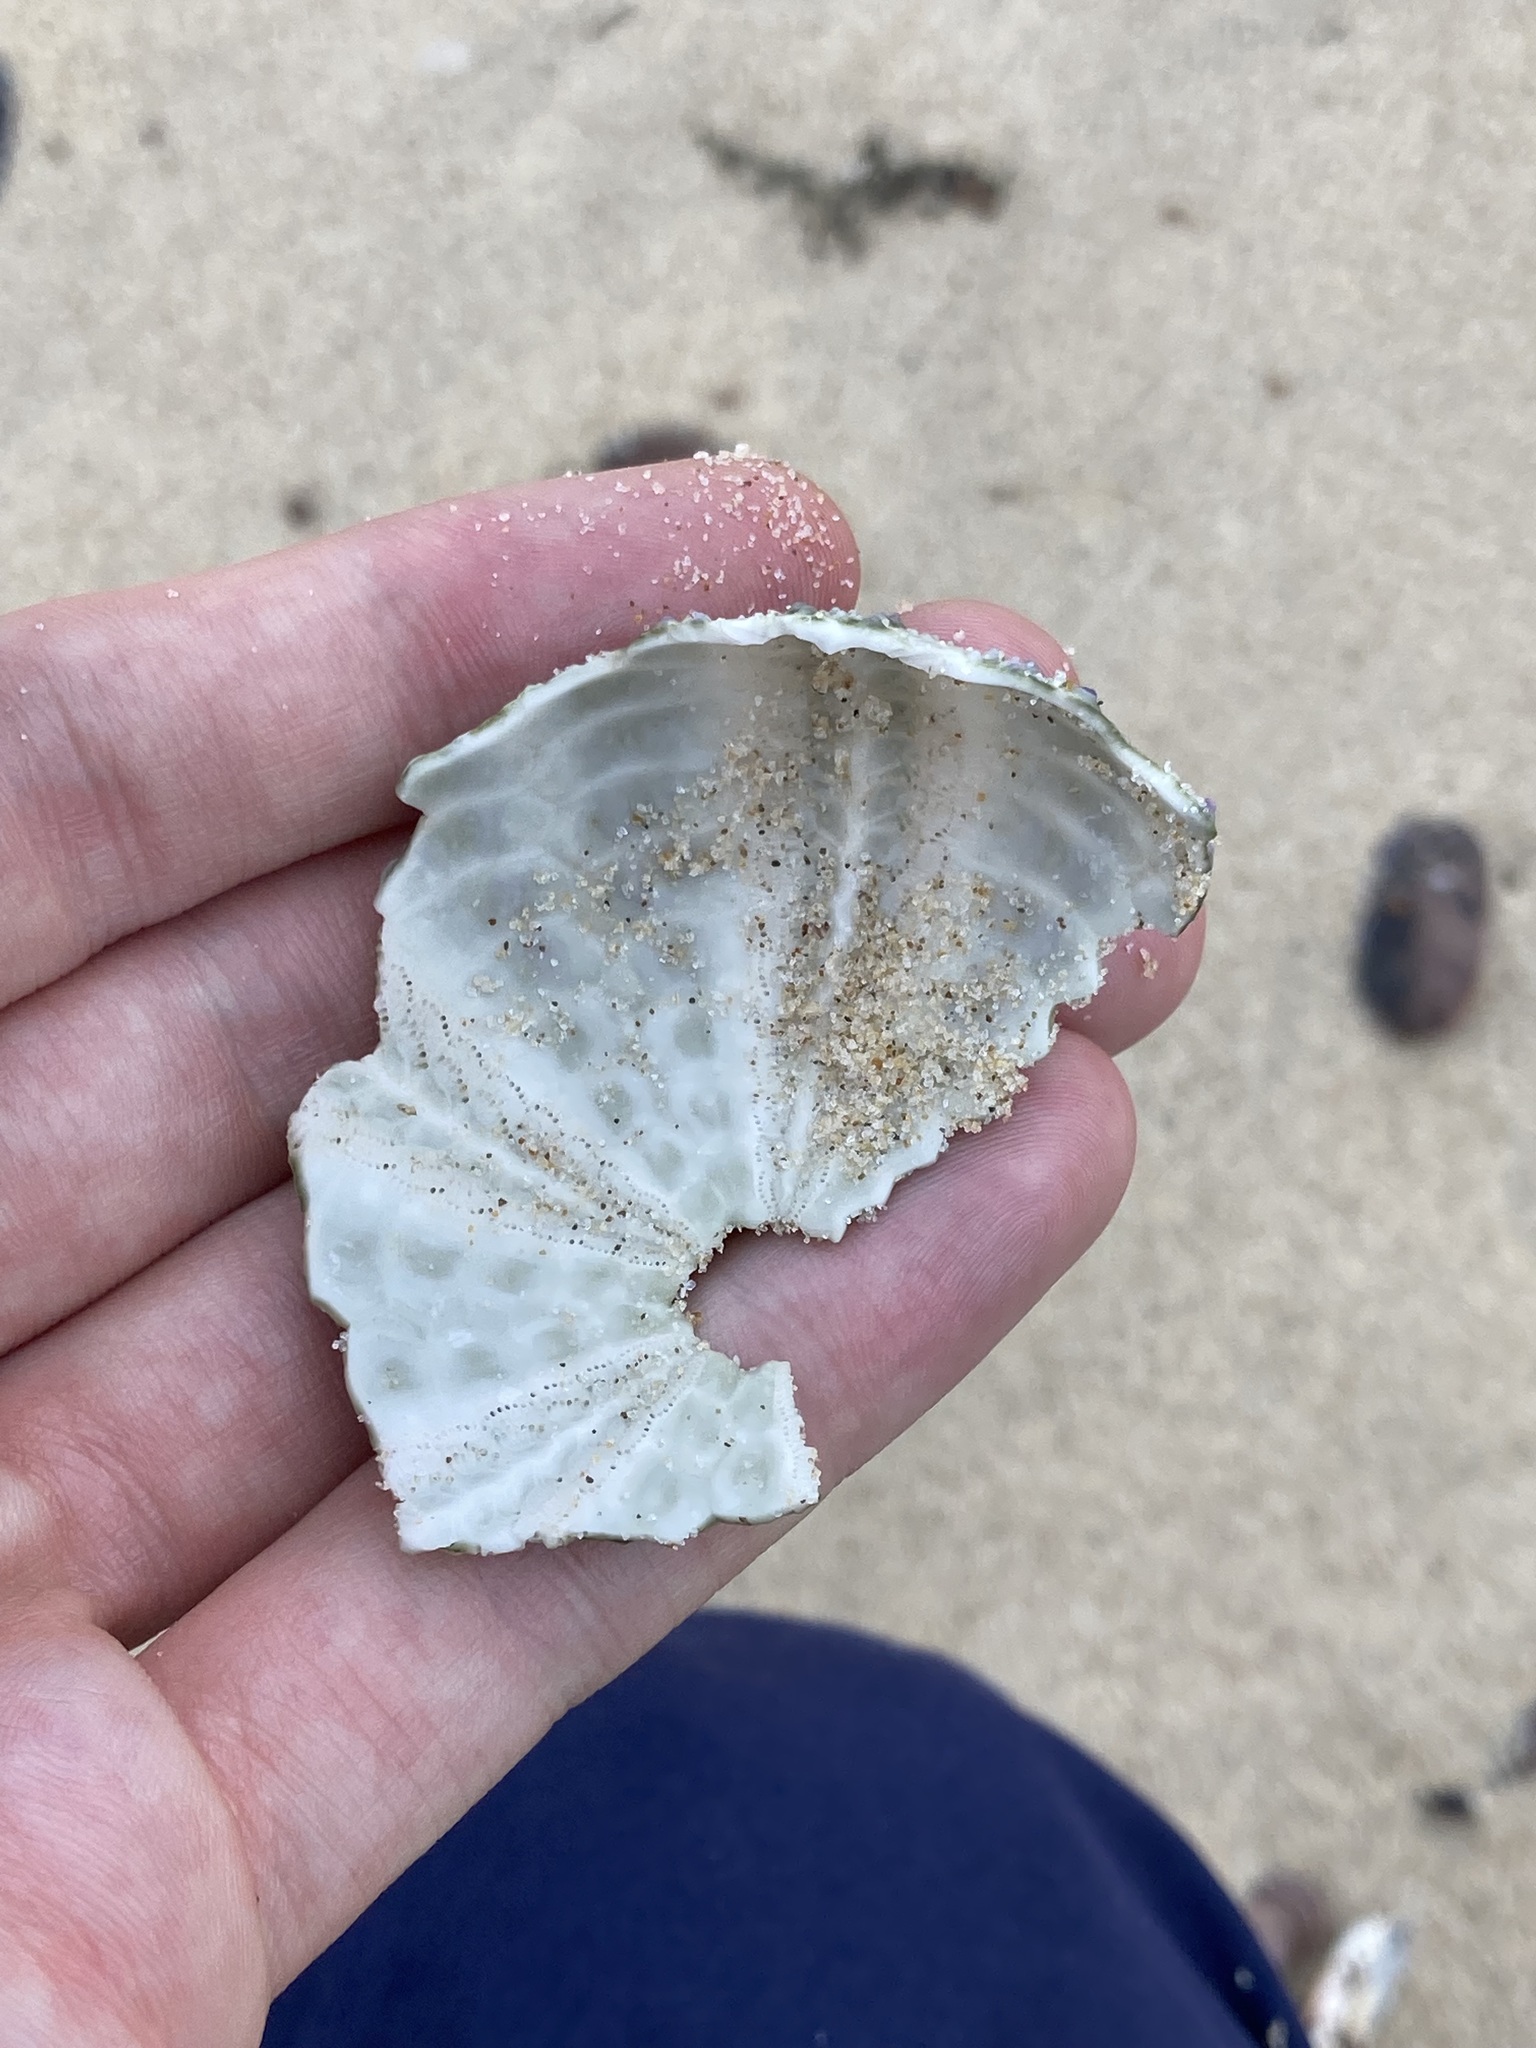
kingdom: Animalia
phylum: Echinodermata
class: Echinoidea
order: Camarodonta
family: Echinometridae
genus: Heliocidaris
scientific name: Heliocidaris erythrogramma
